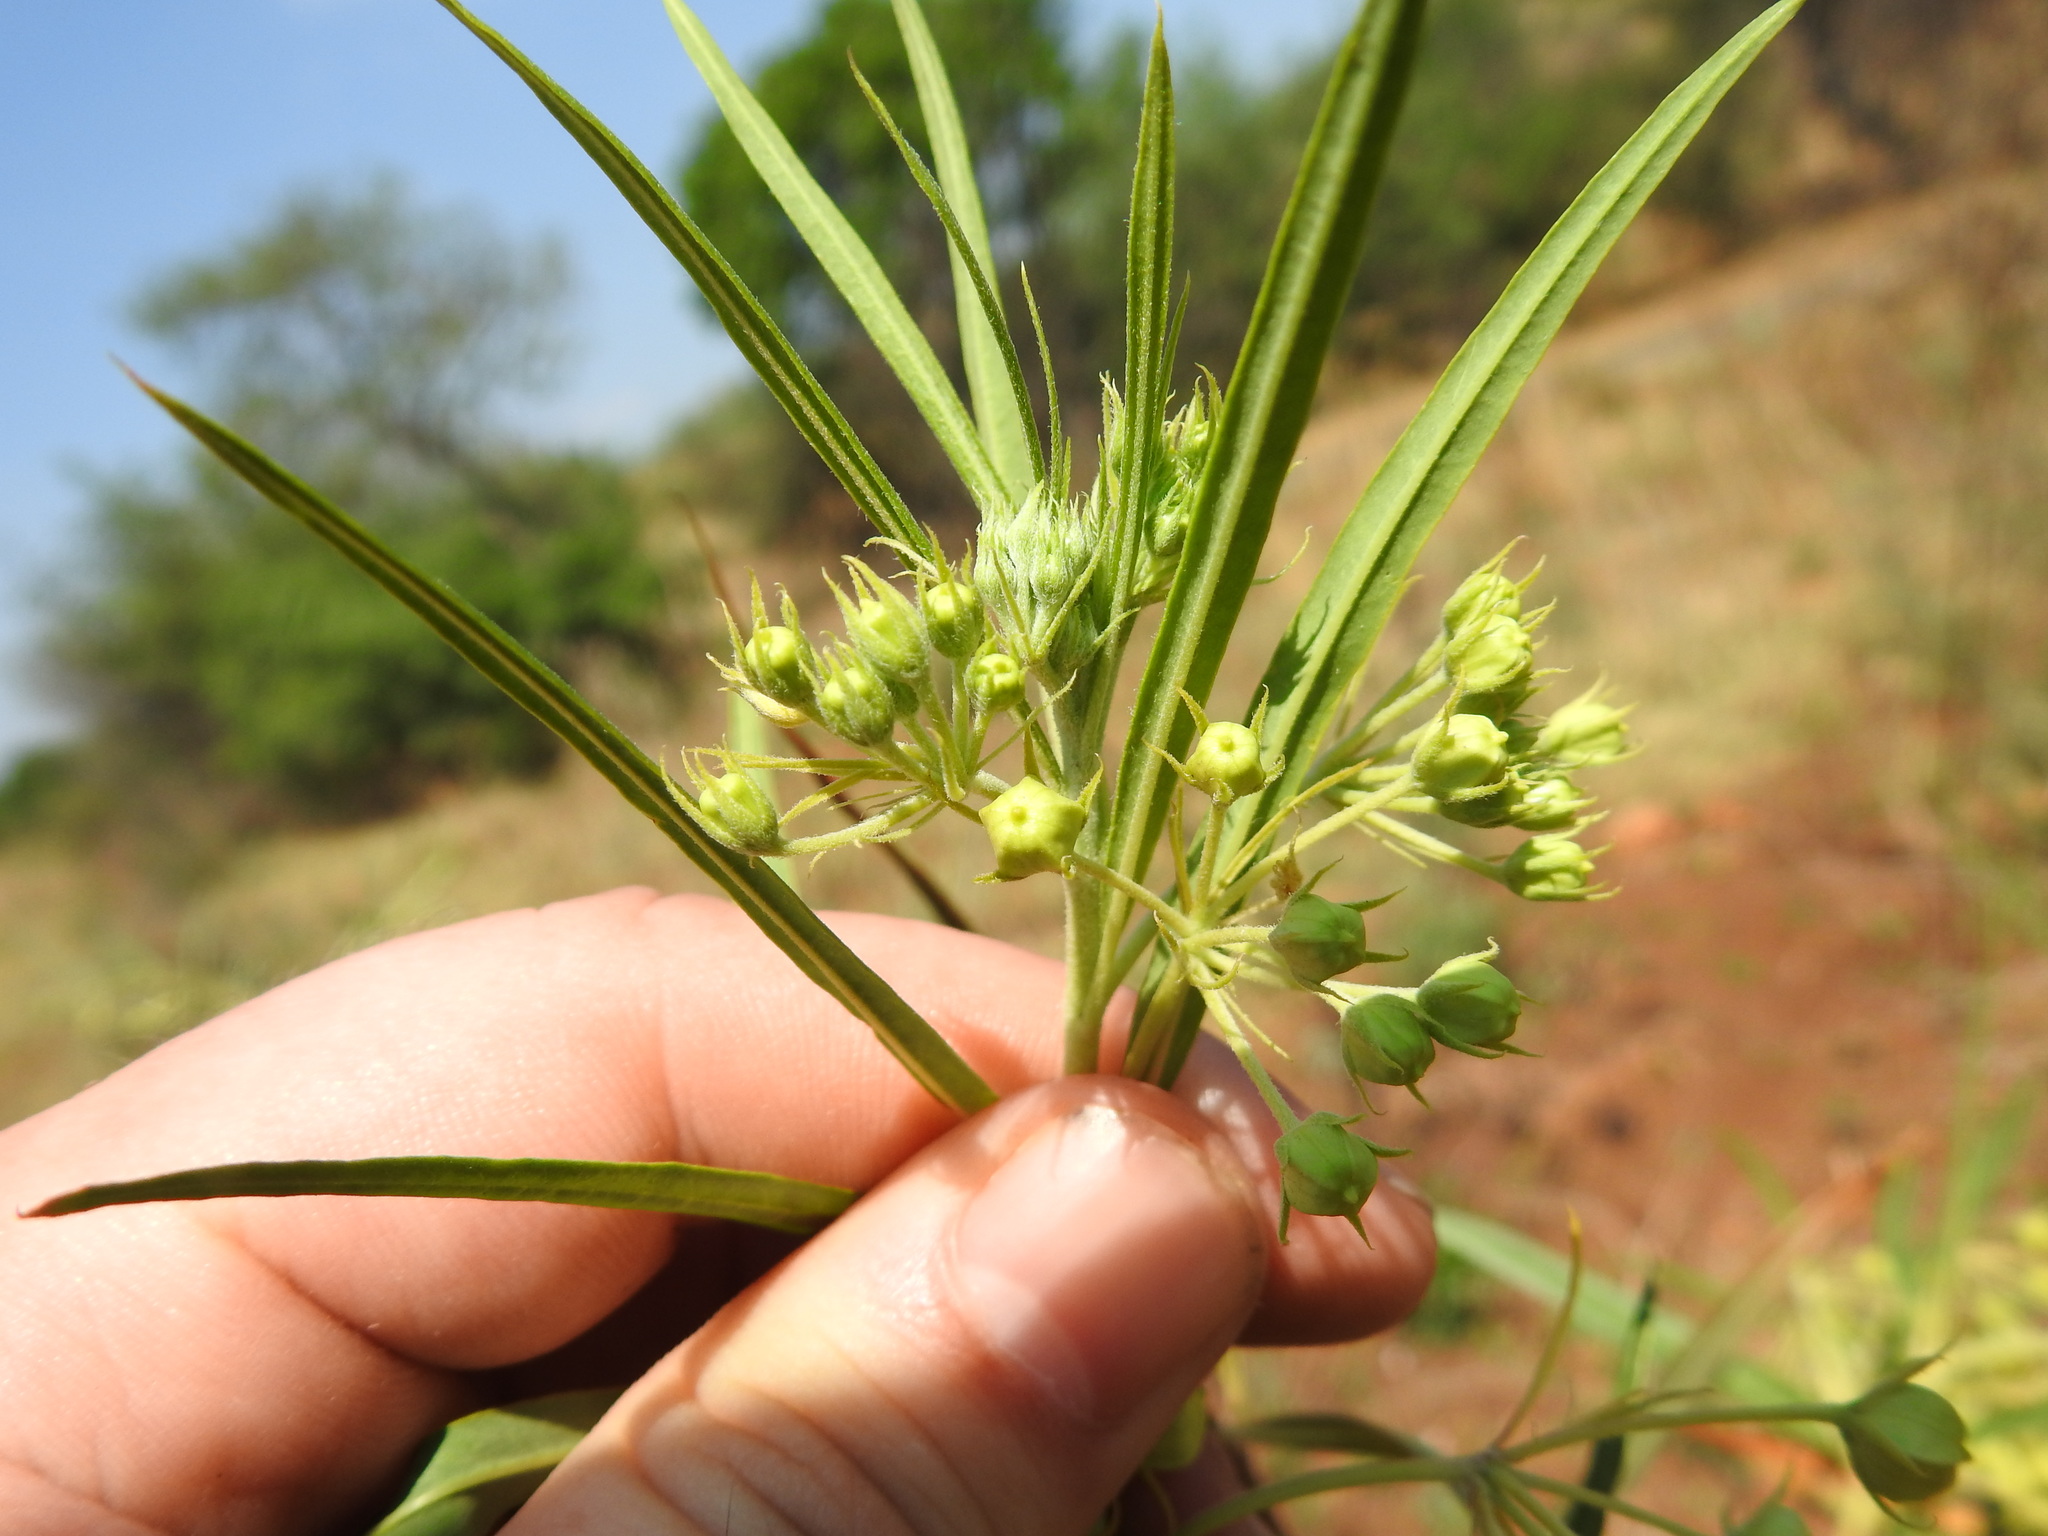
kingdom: Plantae
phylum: Tracheophyta
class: Magnoliopsida
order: Gentianales
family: Apocynaceae
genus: Gomphocarpus
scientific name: Gomphocarpus fruticosus
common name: Milkweed
